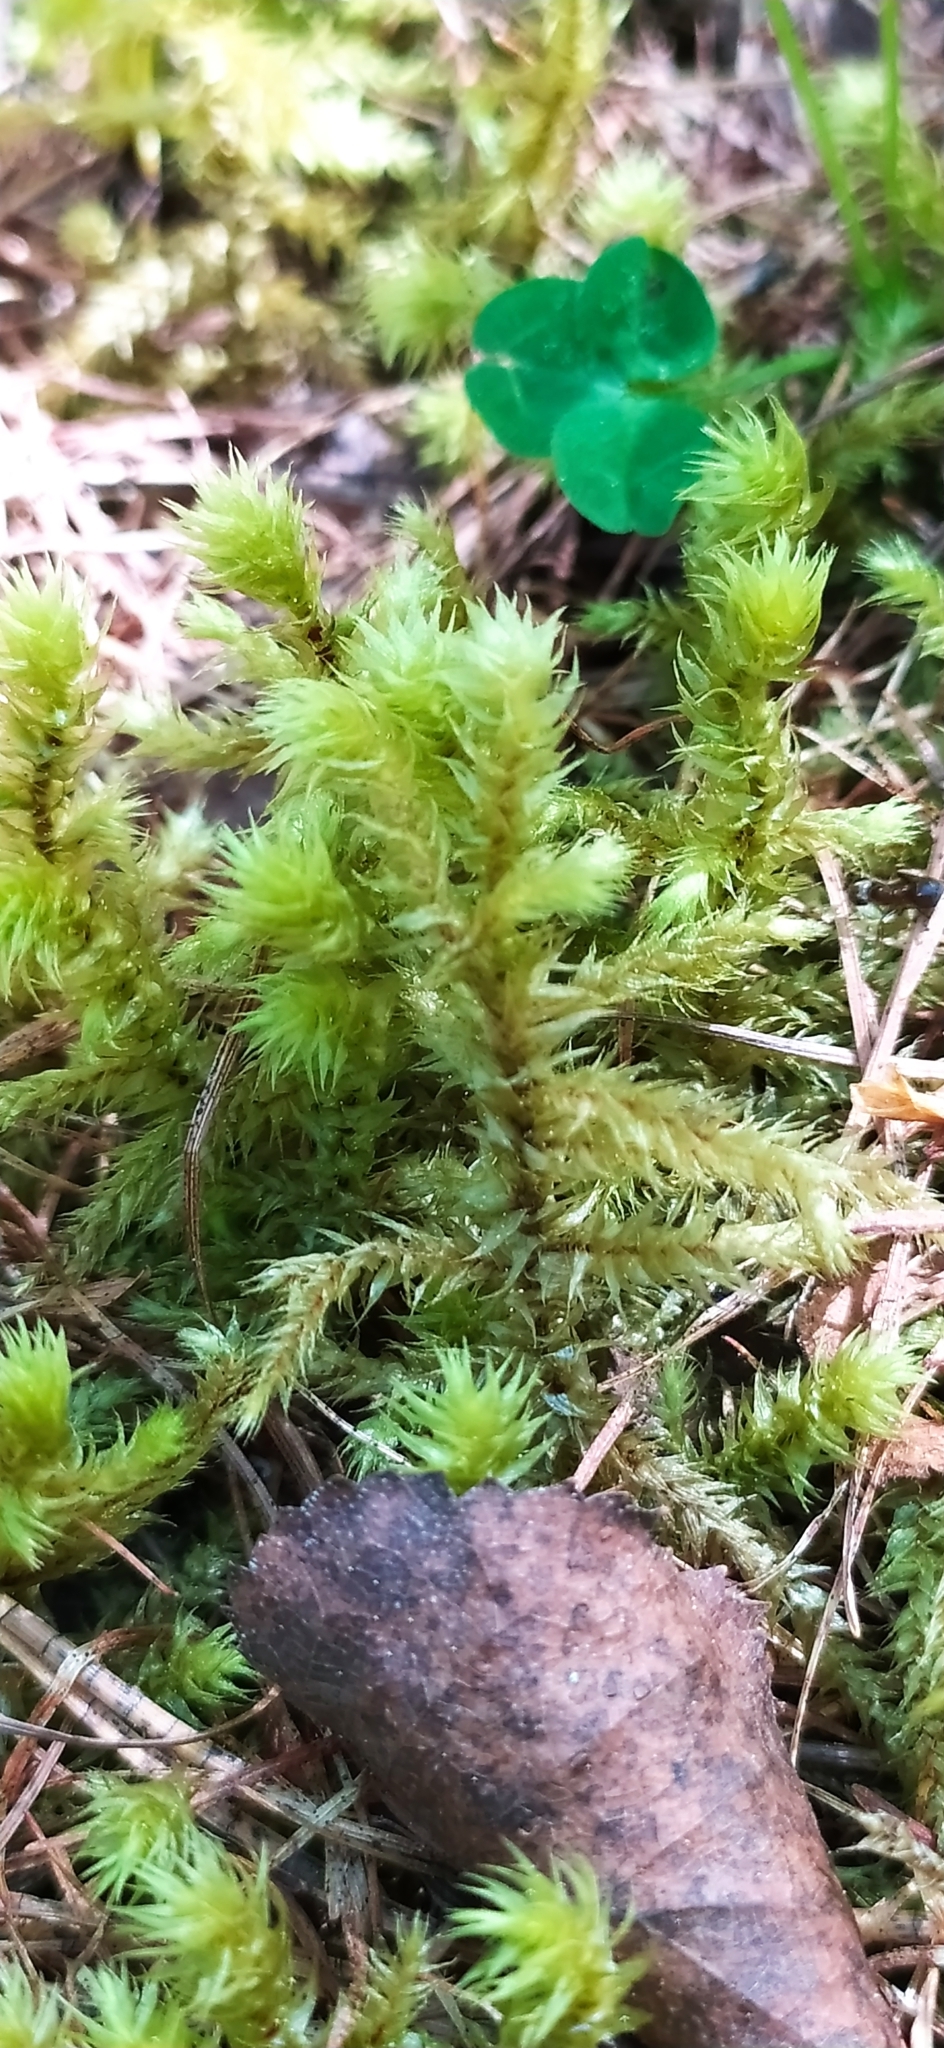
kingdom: Plantae
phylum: Bryophyta
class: Bryopsida
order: Hypnales
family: Hylocomiaceae
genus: Hylocomiadelphus
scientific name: Hylocomiadelphus triquetrus
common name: Rough goose neck moss
